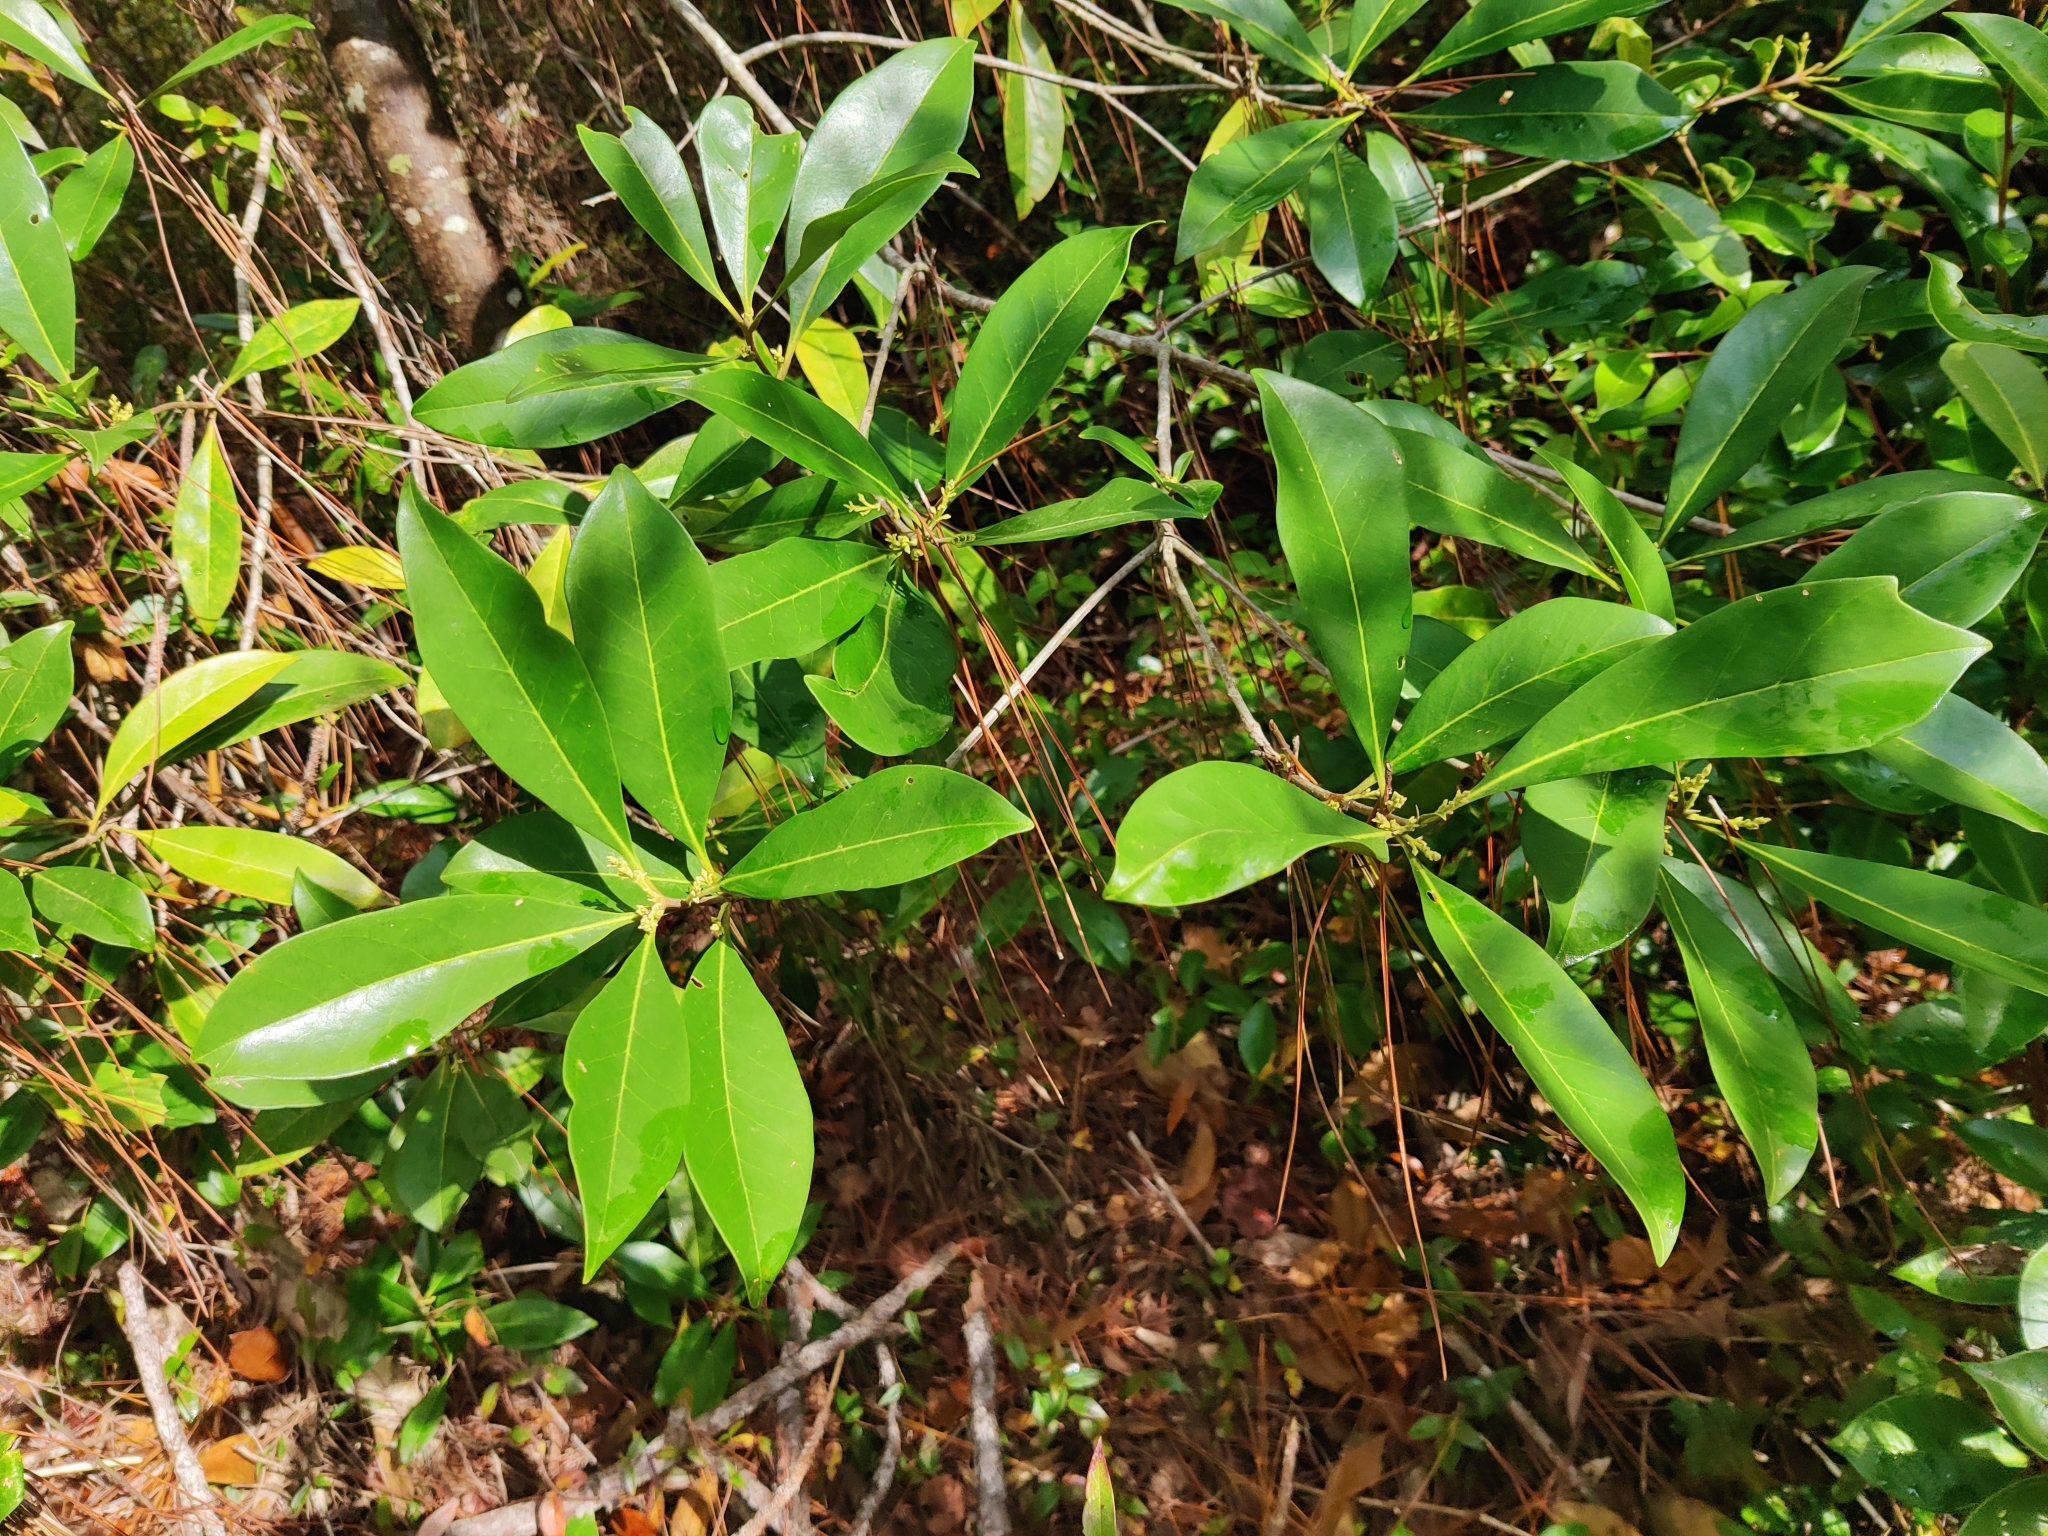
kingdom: Plantae
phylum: Tracheophyta
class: Magnoliopsida
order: Lamiales
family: Oleaceae
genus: Cartrema
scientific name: Cartrema americana
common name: Devilwood
